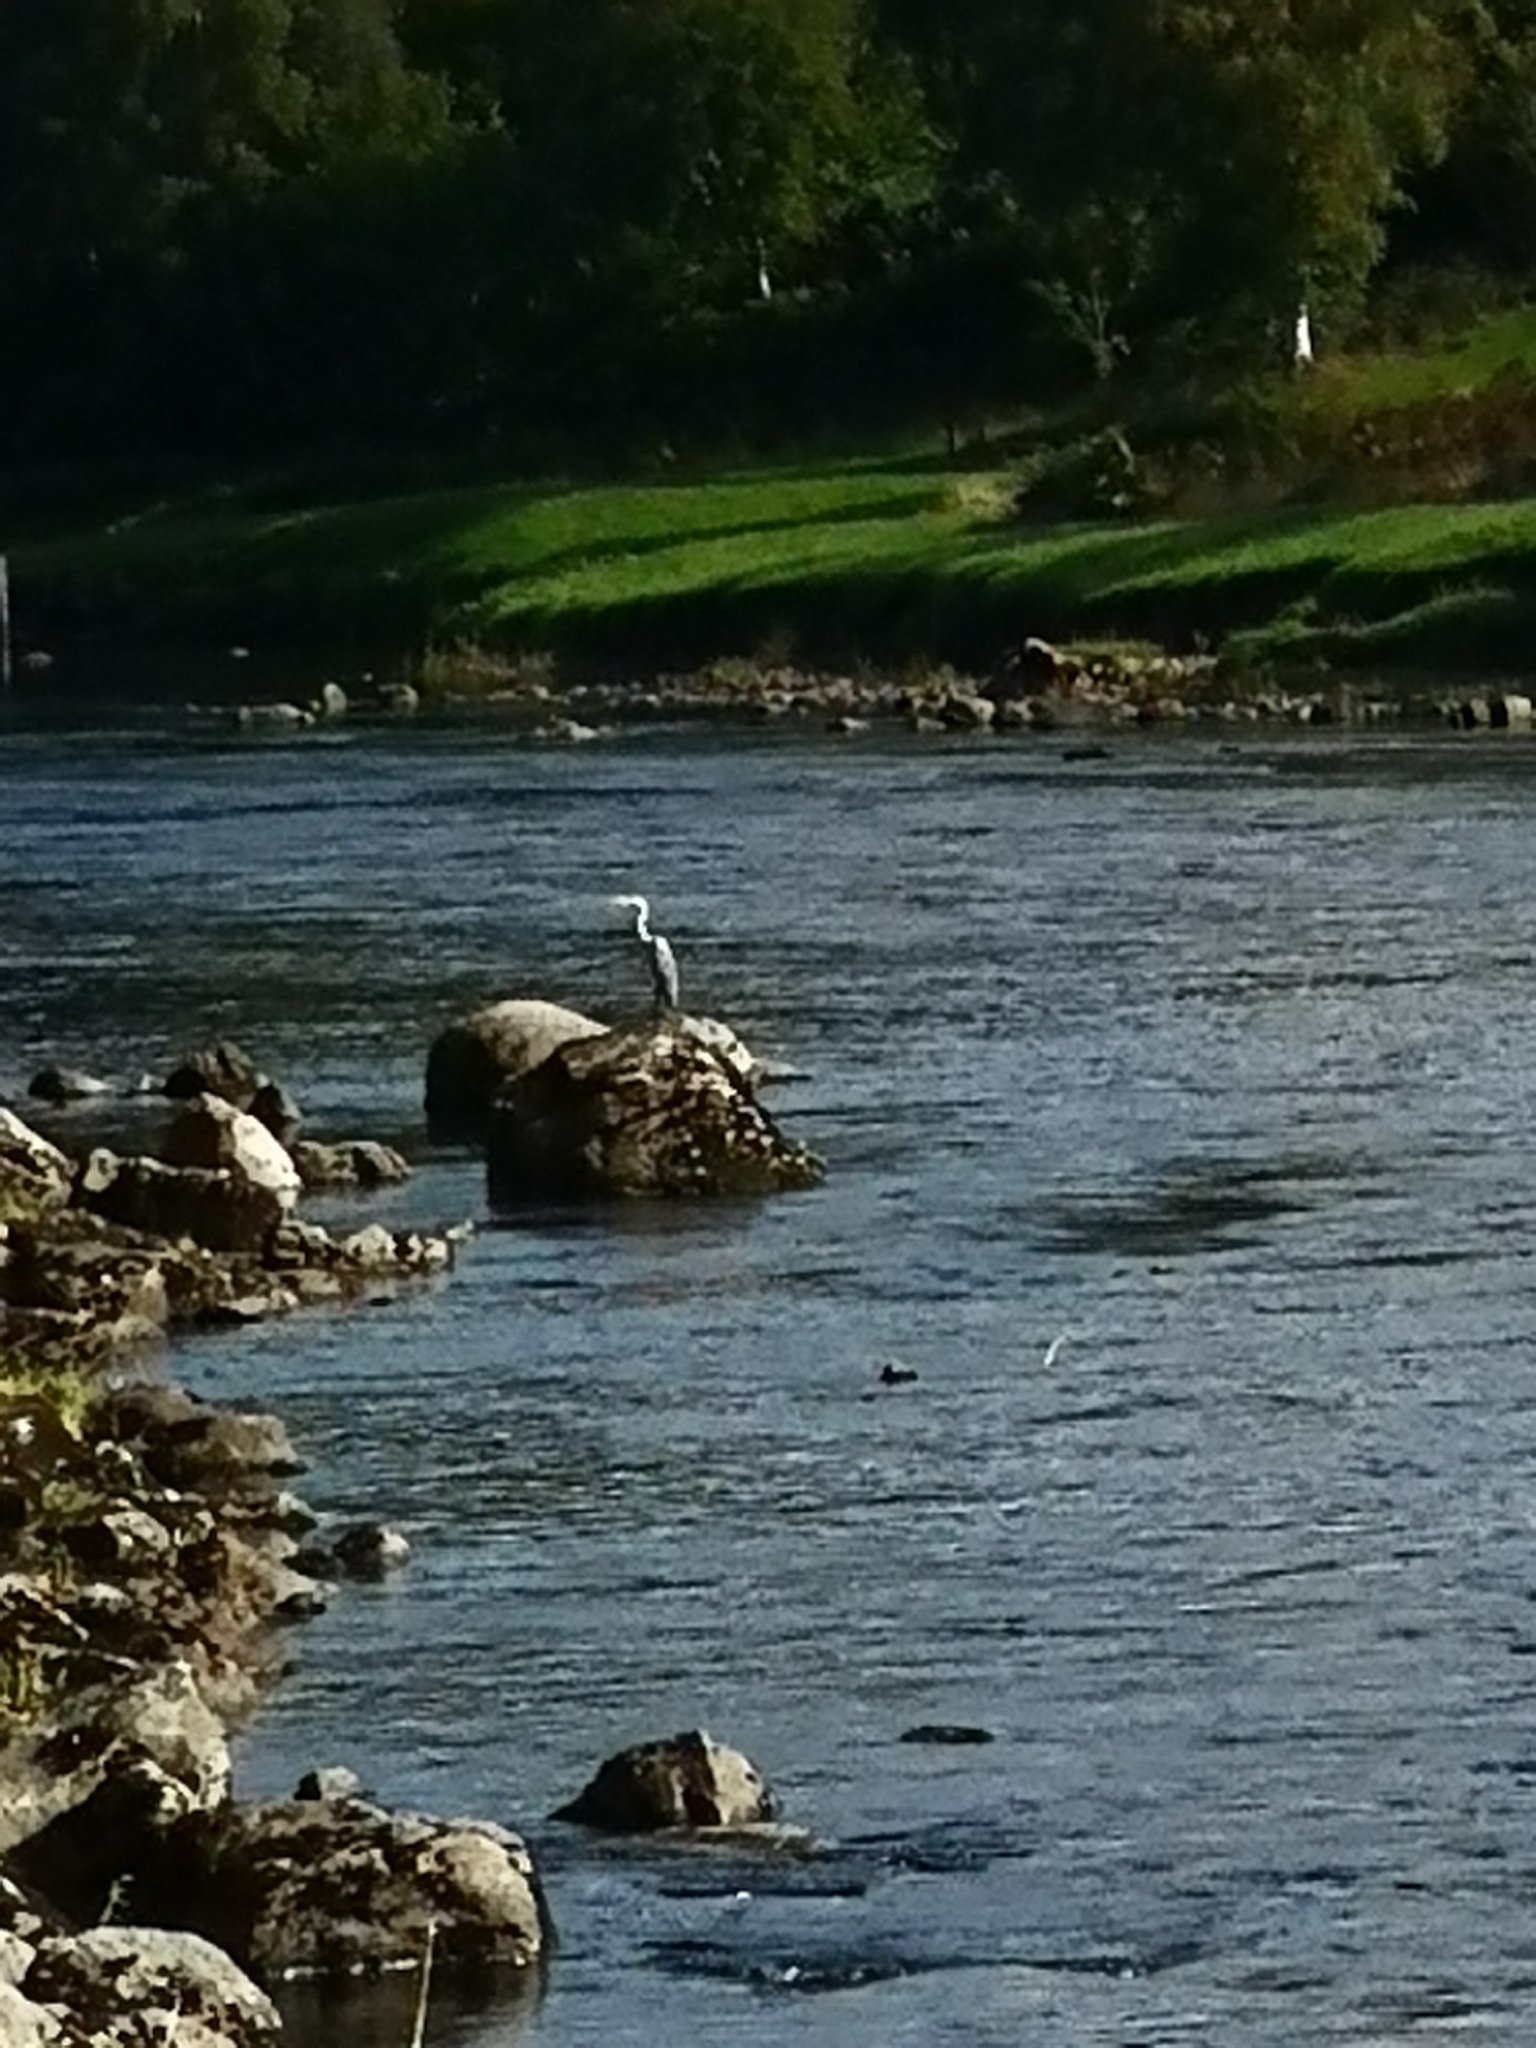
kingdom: Animalia
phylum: Chordata
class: Aves
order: Pelecaniformes
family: Ardeidae
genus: Ardea
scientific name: Ardea cinerea
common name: Grey heron
